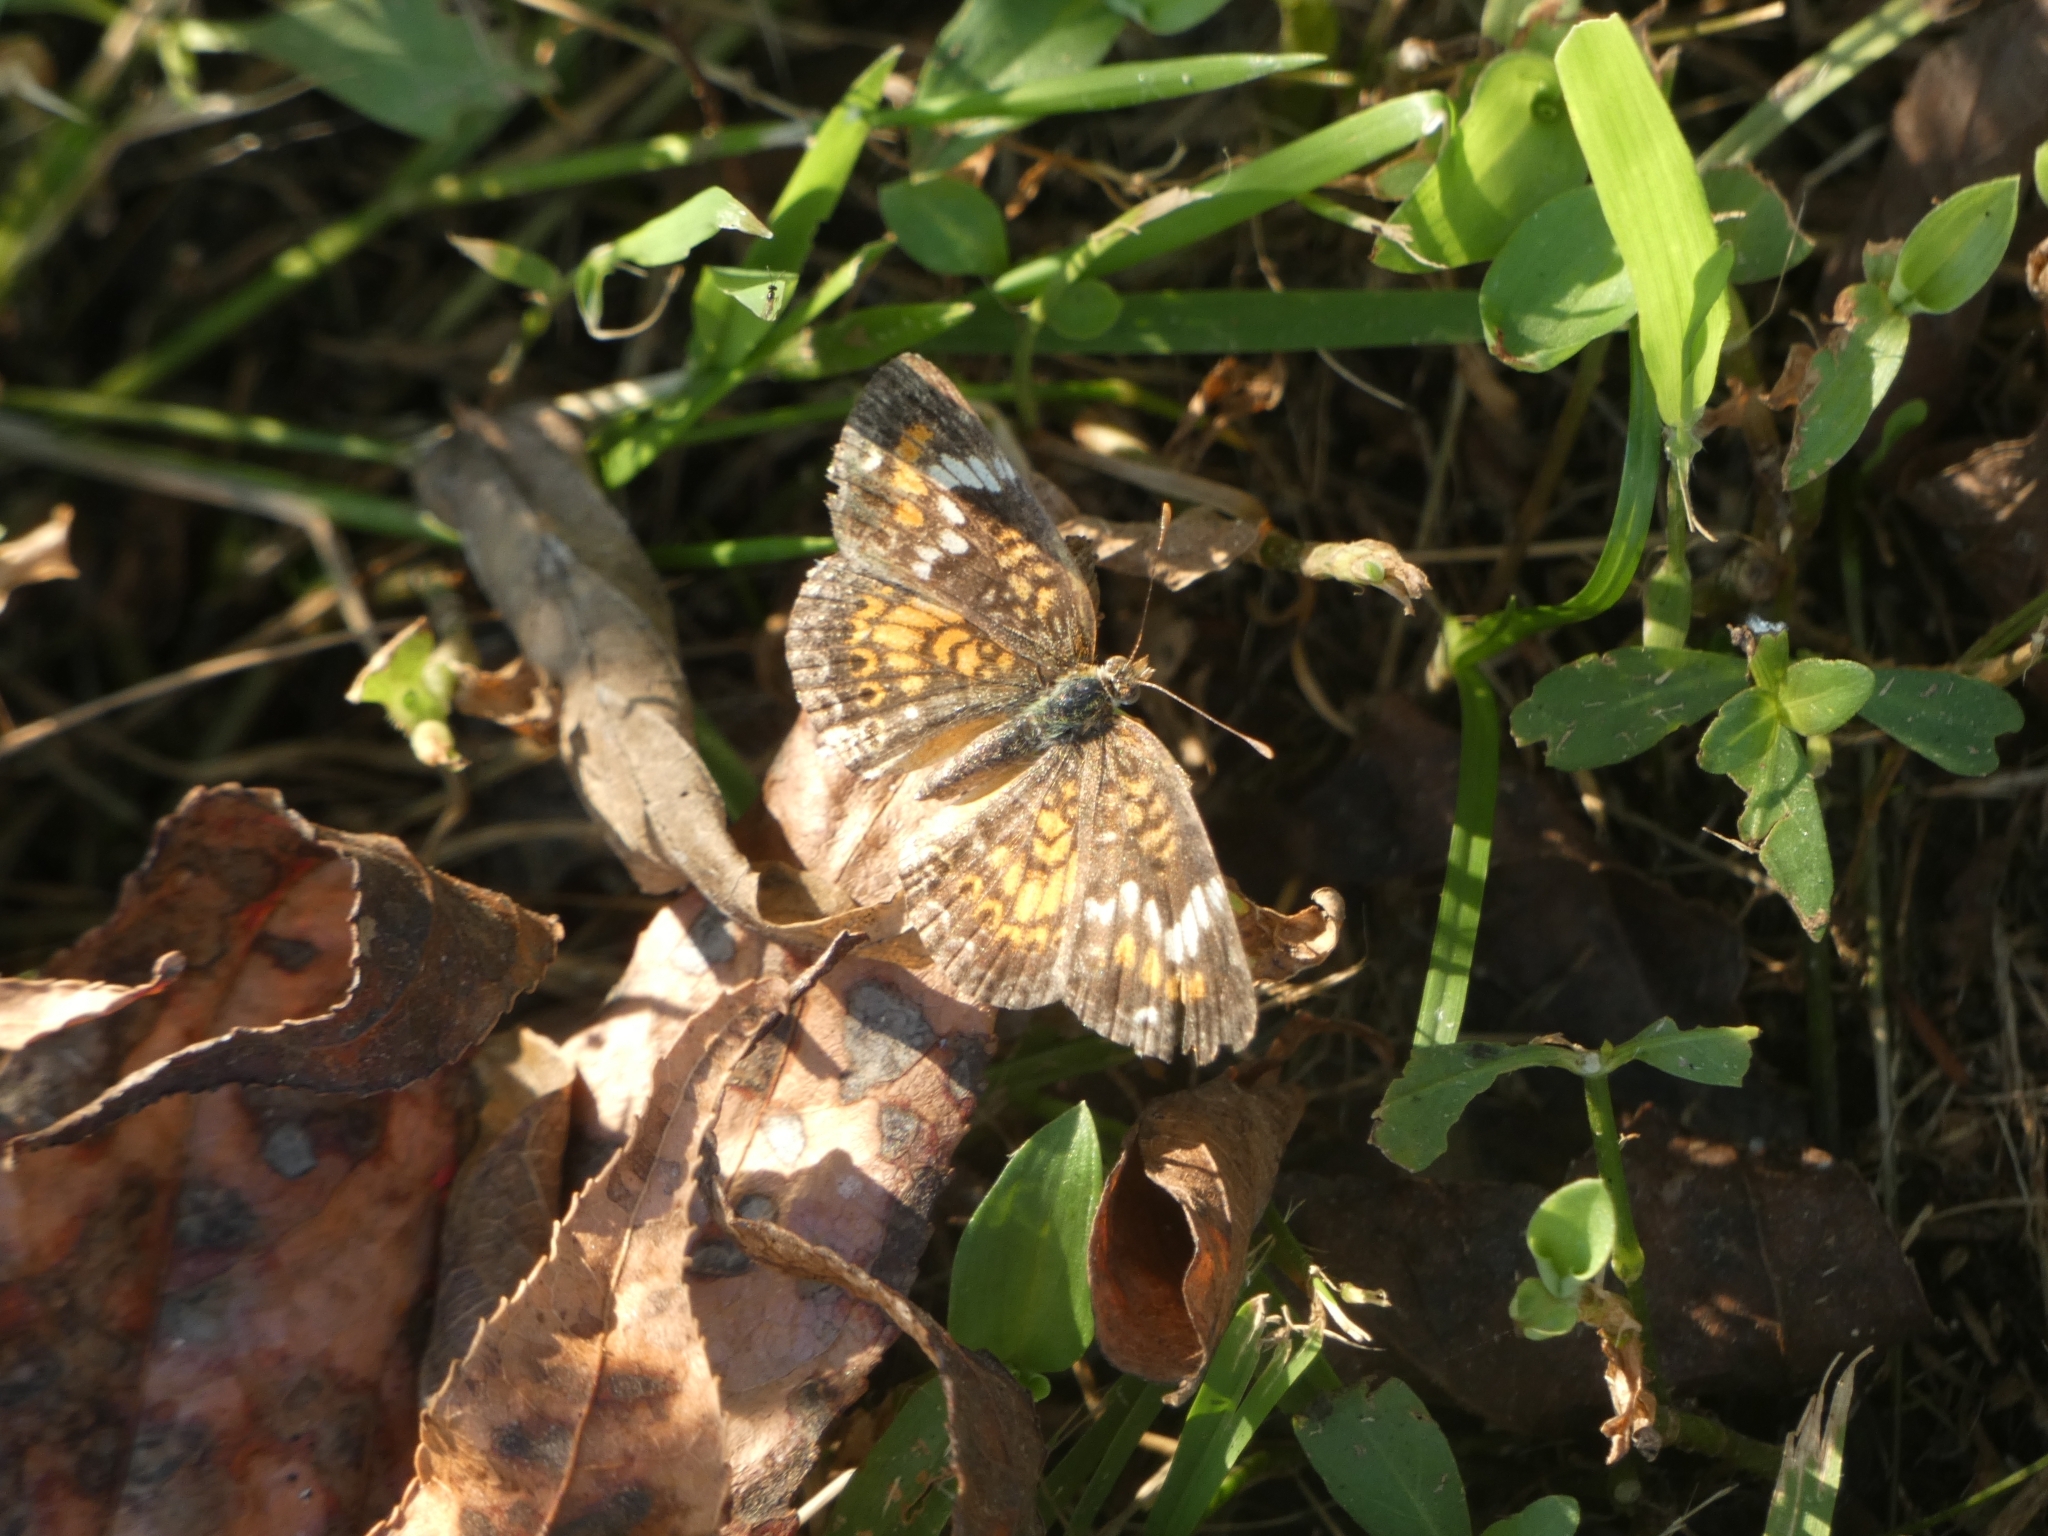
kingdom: Animalia
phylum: Arthropoda
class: Insecta
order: Lepidoptera
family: Nymphalidae
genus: Phyciodes
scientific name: Phyciodes phaon
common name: Phaon crescent
